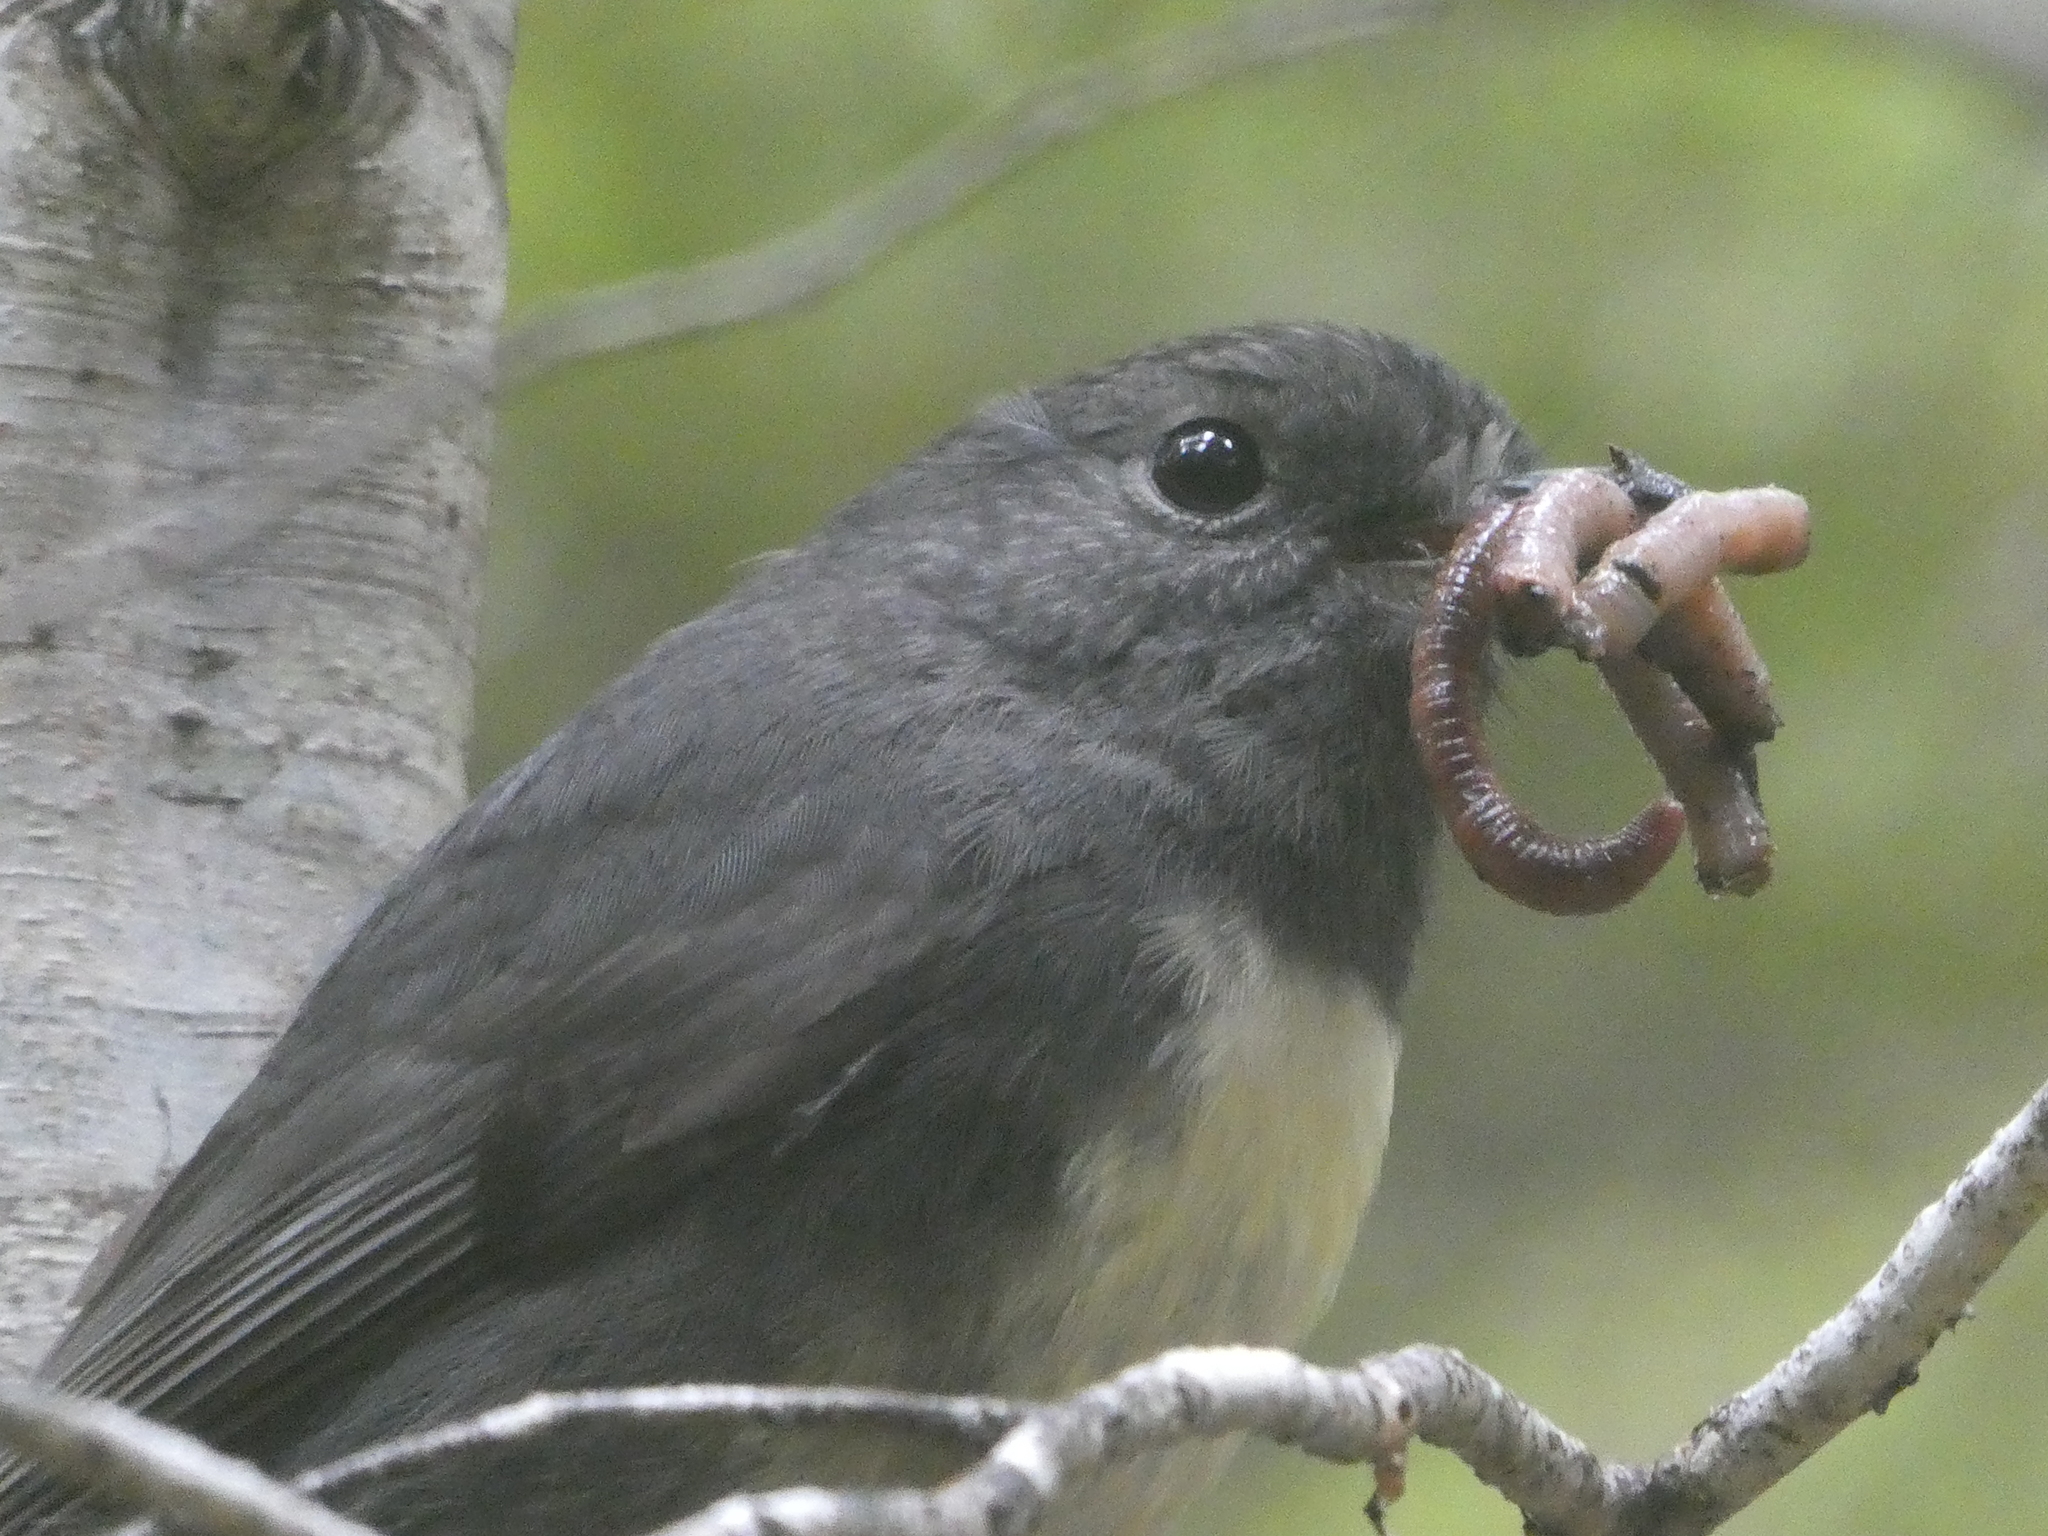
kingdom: Animalia
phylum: Chordata
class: Aves
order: Passeriformes
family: Petroicidae
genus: Petroica
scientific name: Petroica australis
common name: New zealand robin
